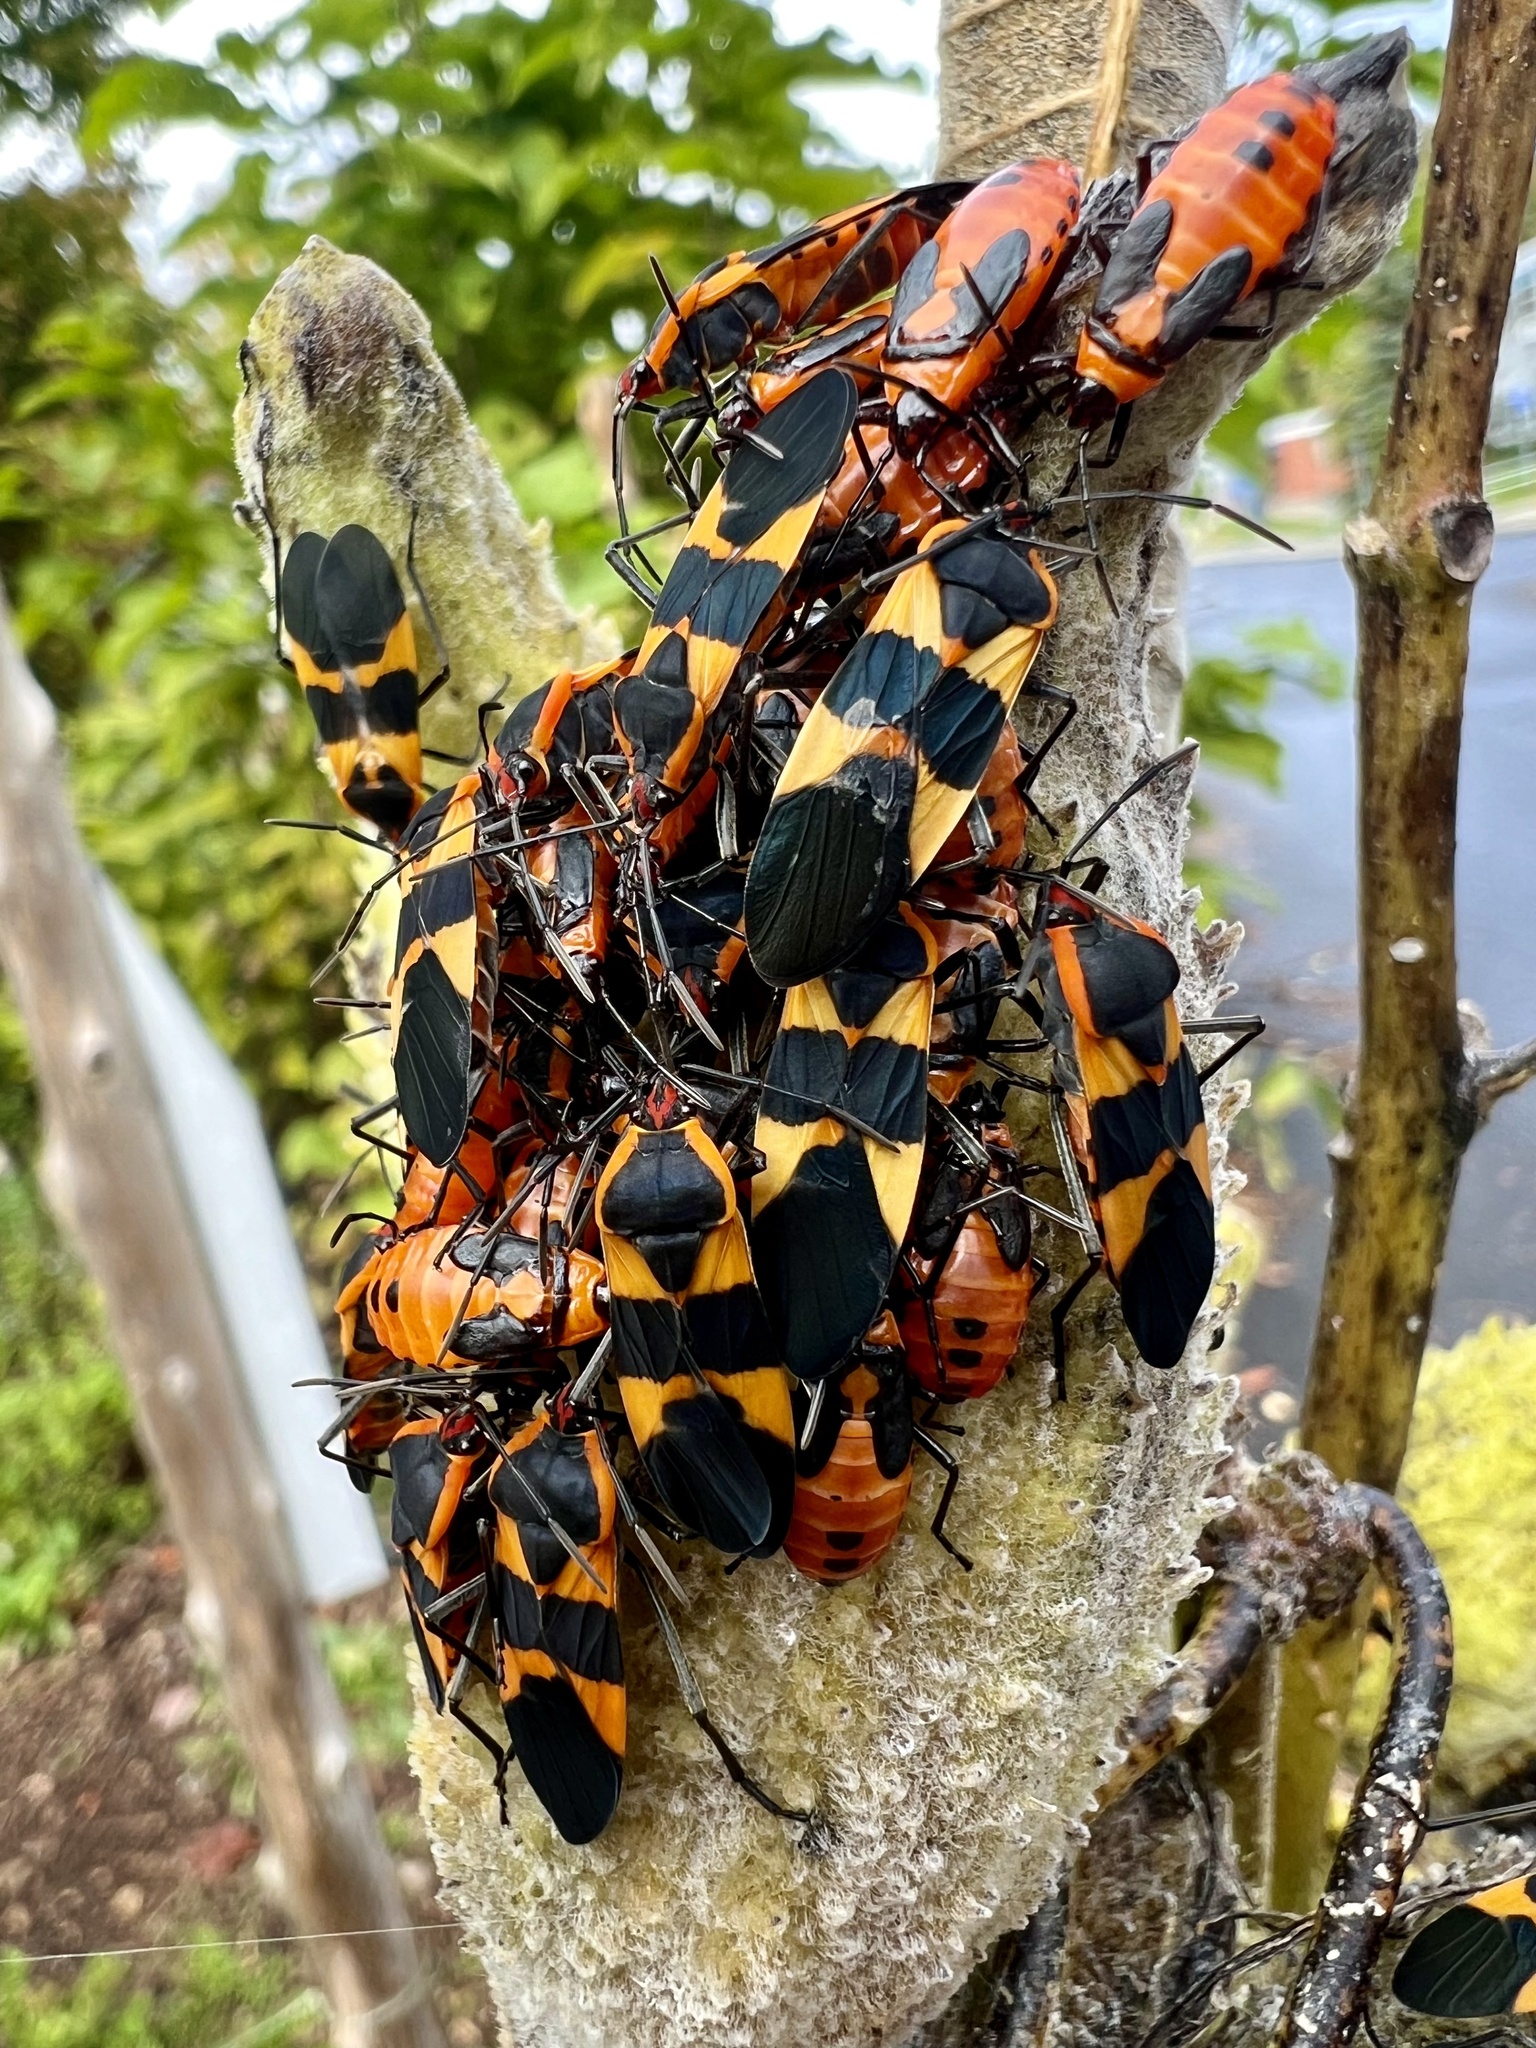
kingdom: Animalia
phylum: Arthropoda
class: Insecta
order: Hemiptera
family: Lygaeidae
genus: Oncopeltus
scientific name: Oncopeltus fasciatus
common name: Large milkweed bug
